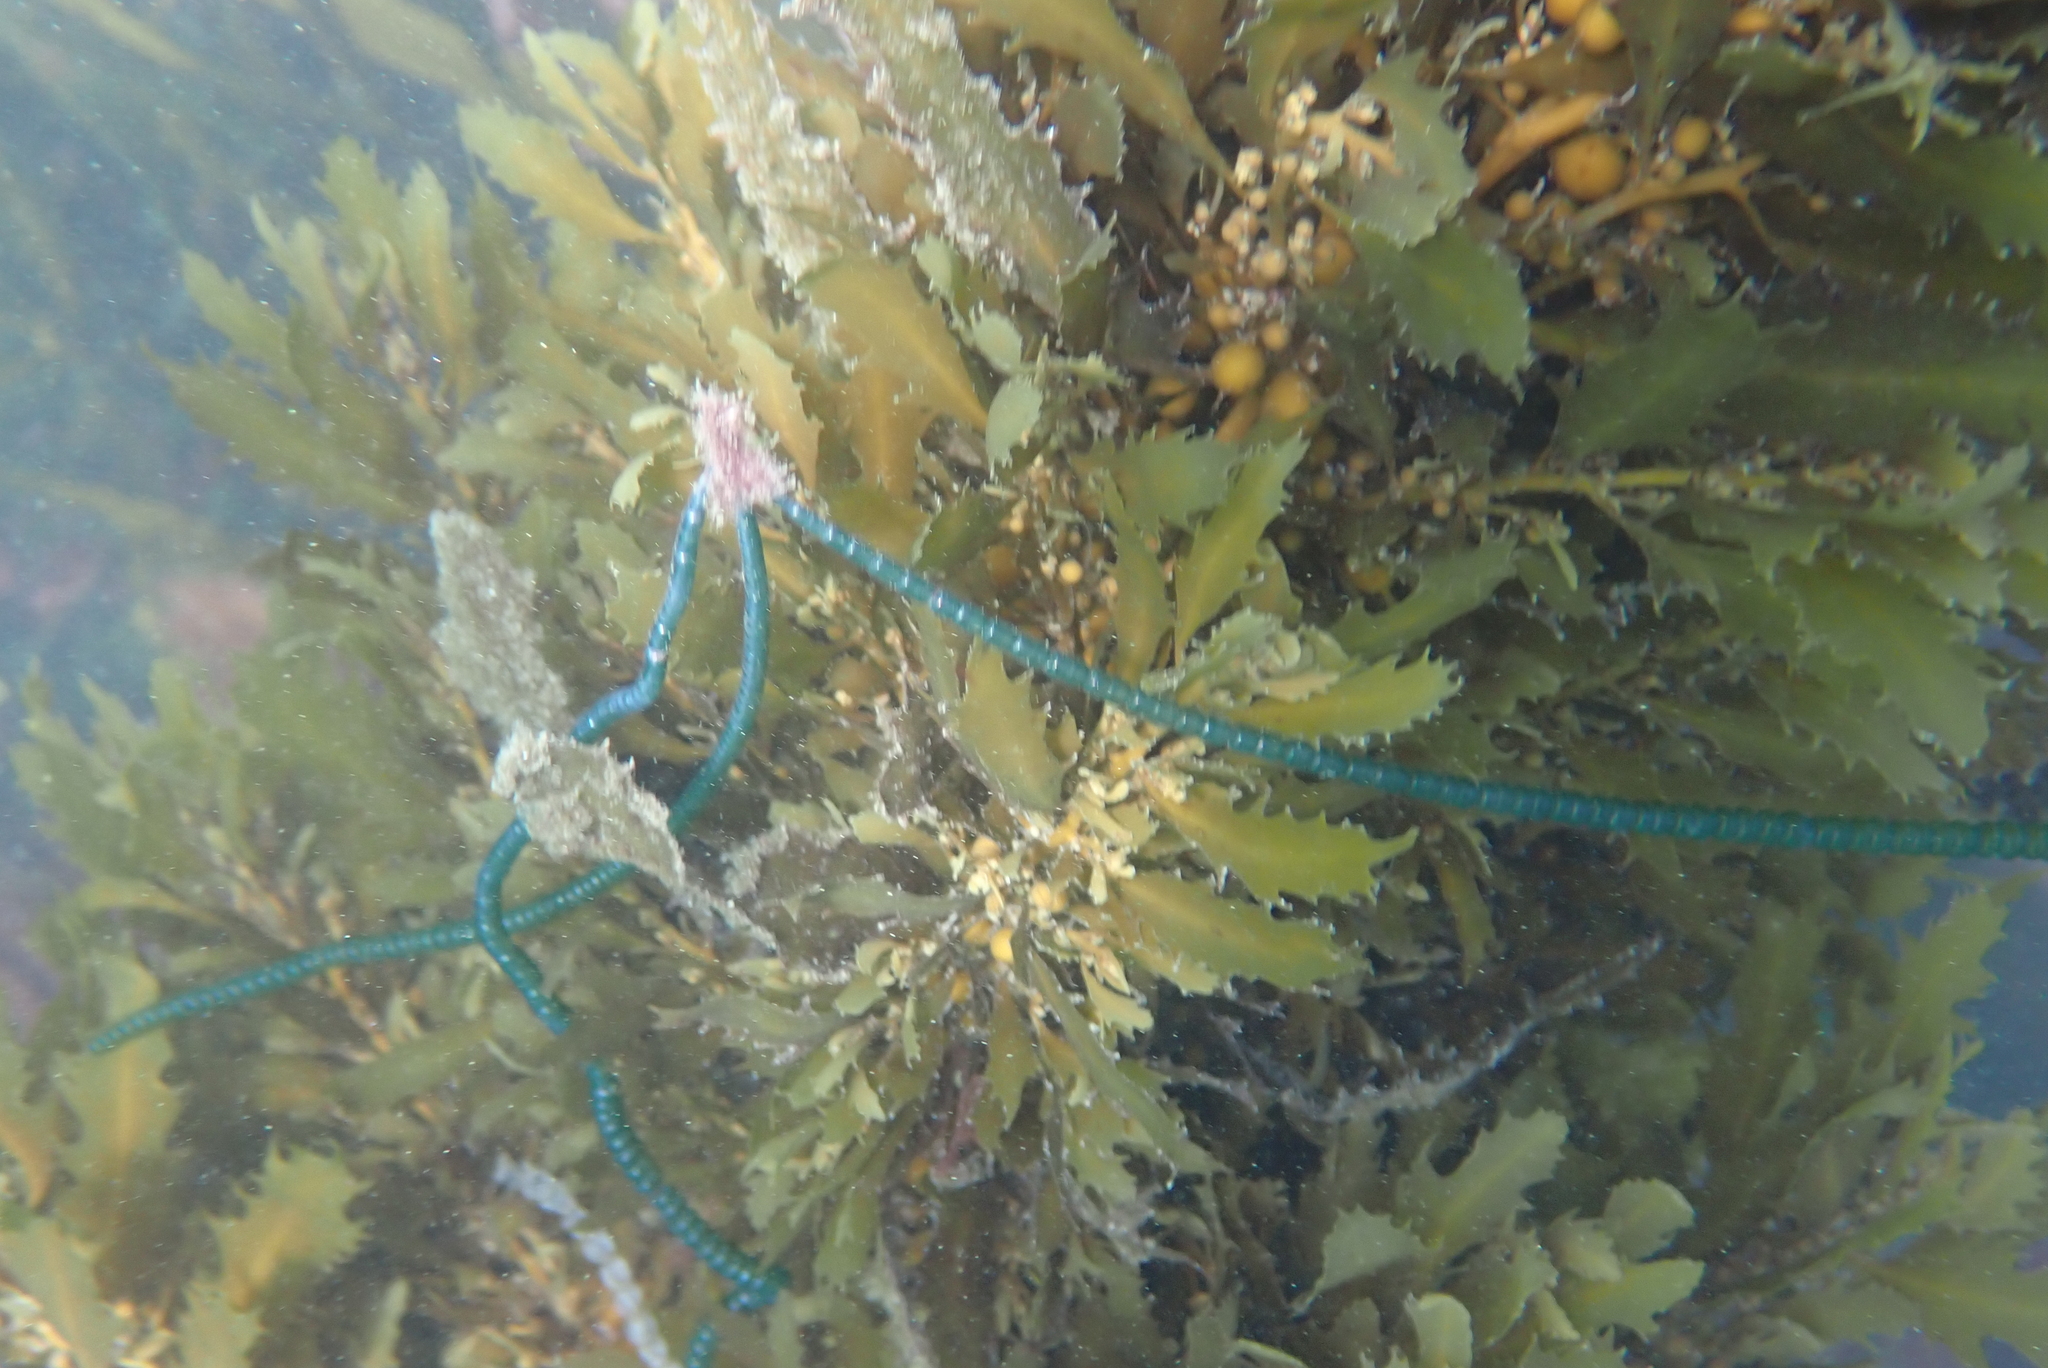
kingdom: Plantae
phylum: Chlorophyta
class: Ulvophyceae
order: Cladophorales
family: Cladophoraceae
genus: Chaetomorpha
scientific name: Chaetomorpha coliformis
